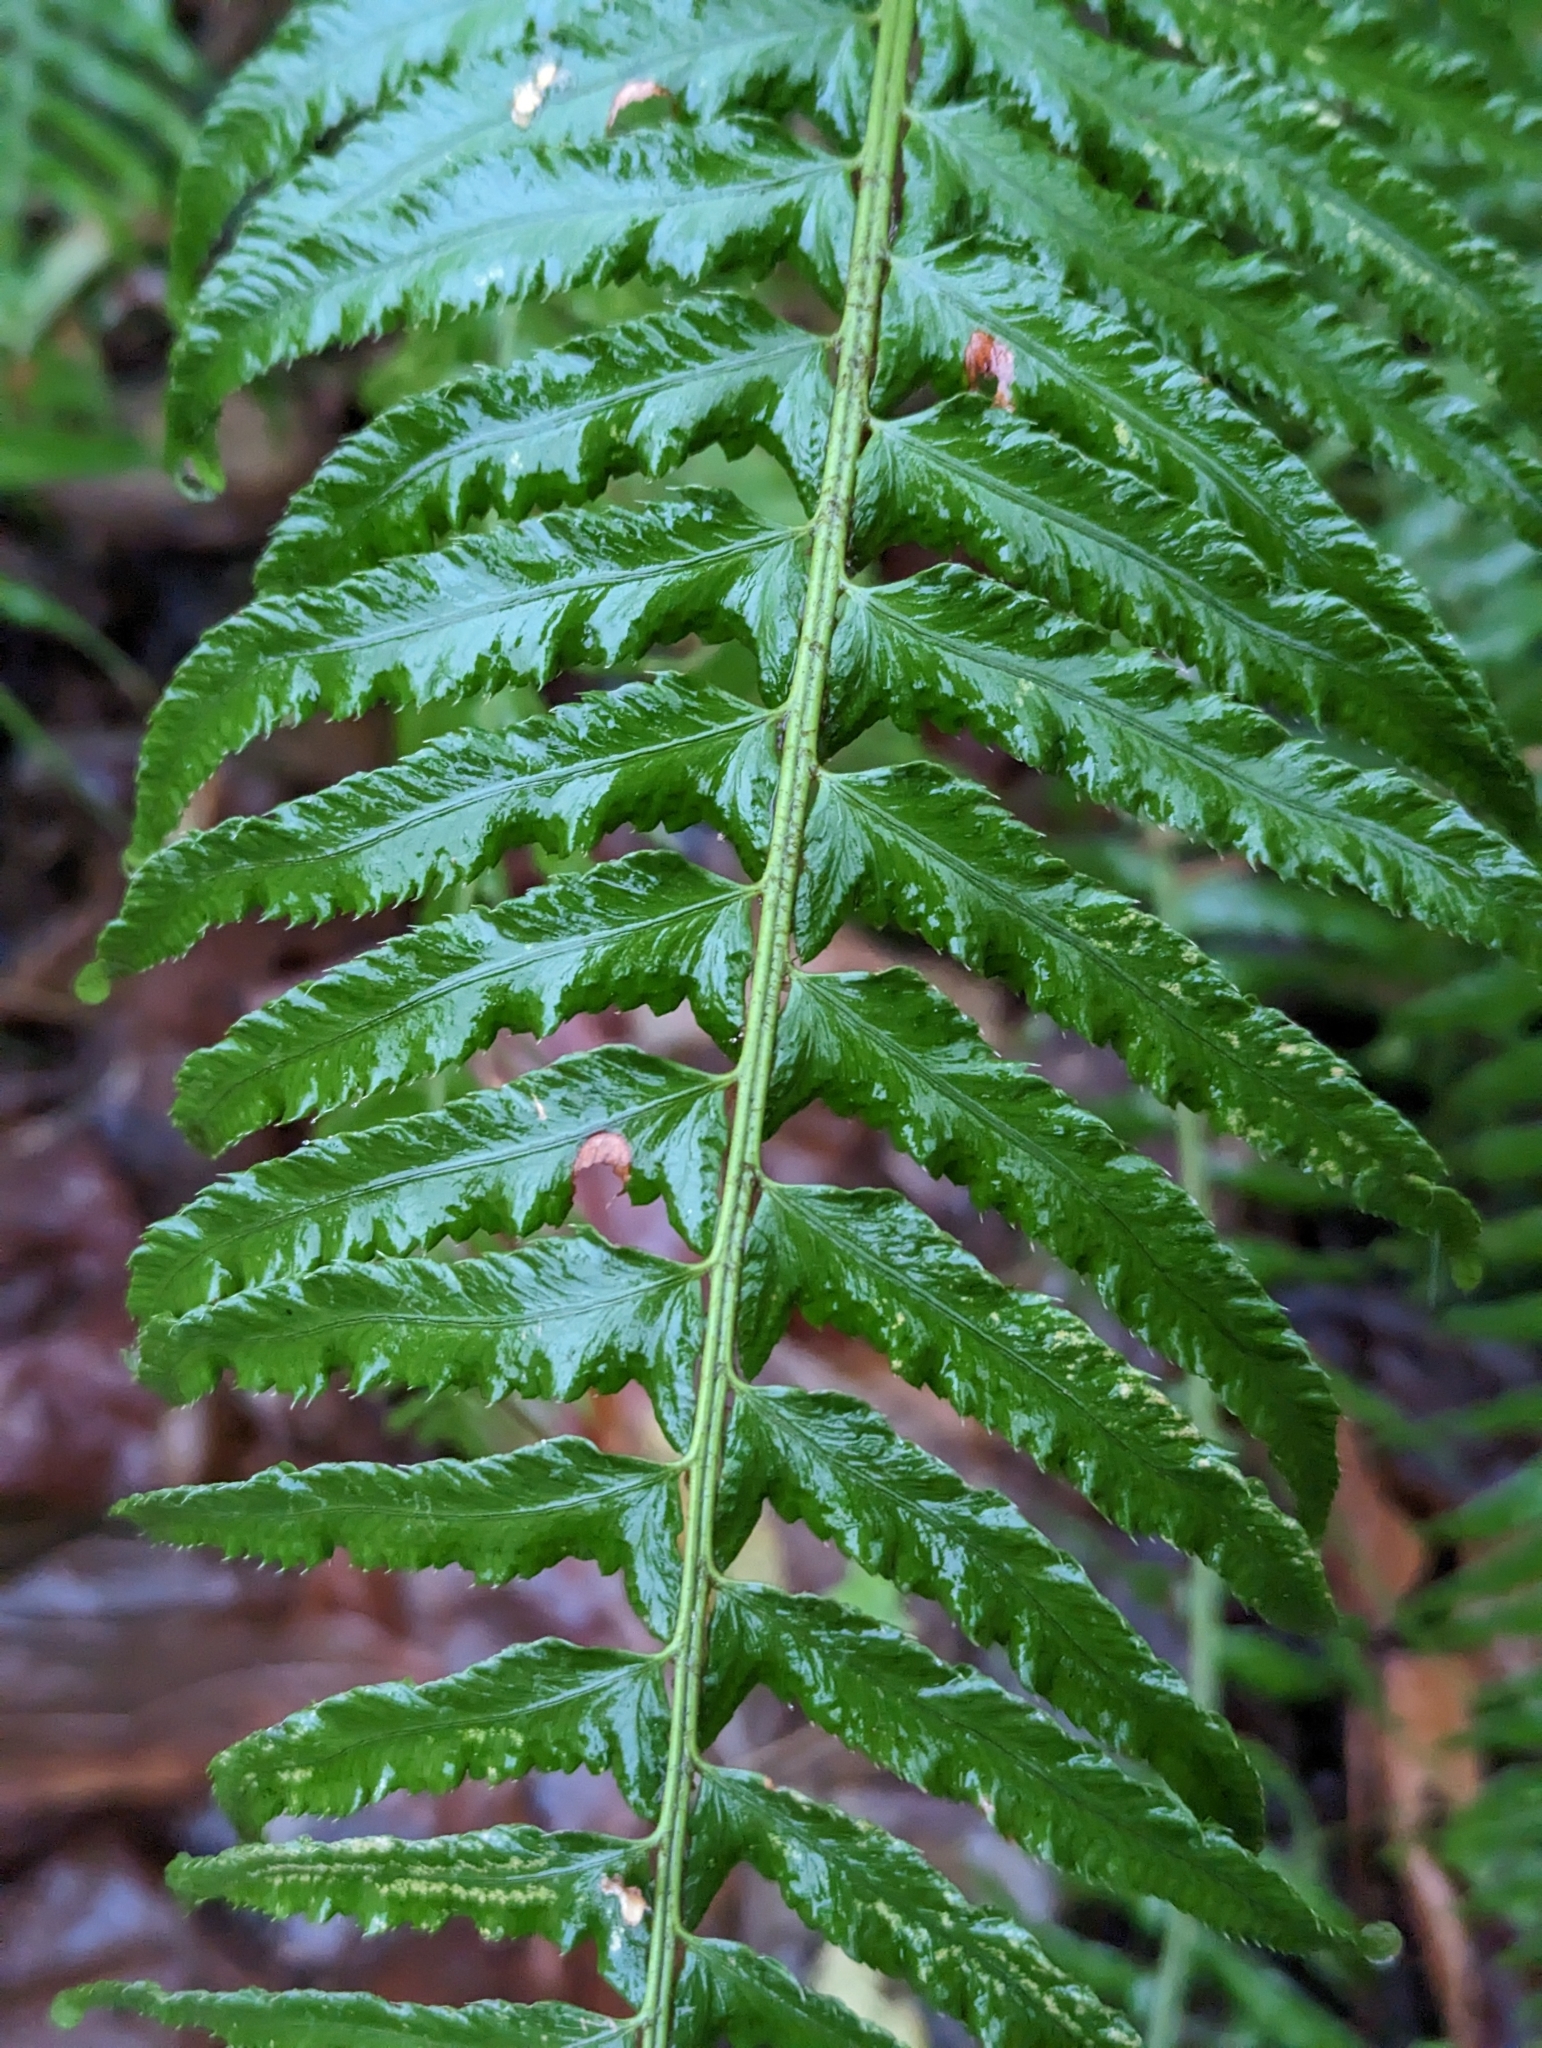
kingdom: Plantae
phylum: Tracheophyta
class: Polypodiopsida
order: Polypodiales
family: Dryopteridaceae
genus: Polystichum
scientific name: Polystichum munitum
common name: Western sword-fern
